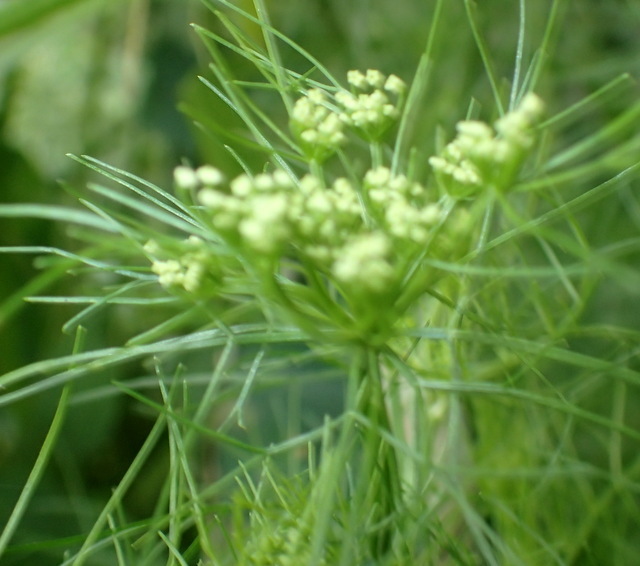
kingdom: Plantae
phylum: Tracheophyta
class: Magnoliopsida
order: Apiales
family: Apiaceae
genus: Ptilimnium
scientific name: Ptilimnium capillaceum
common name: Herbwilliam
